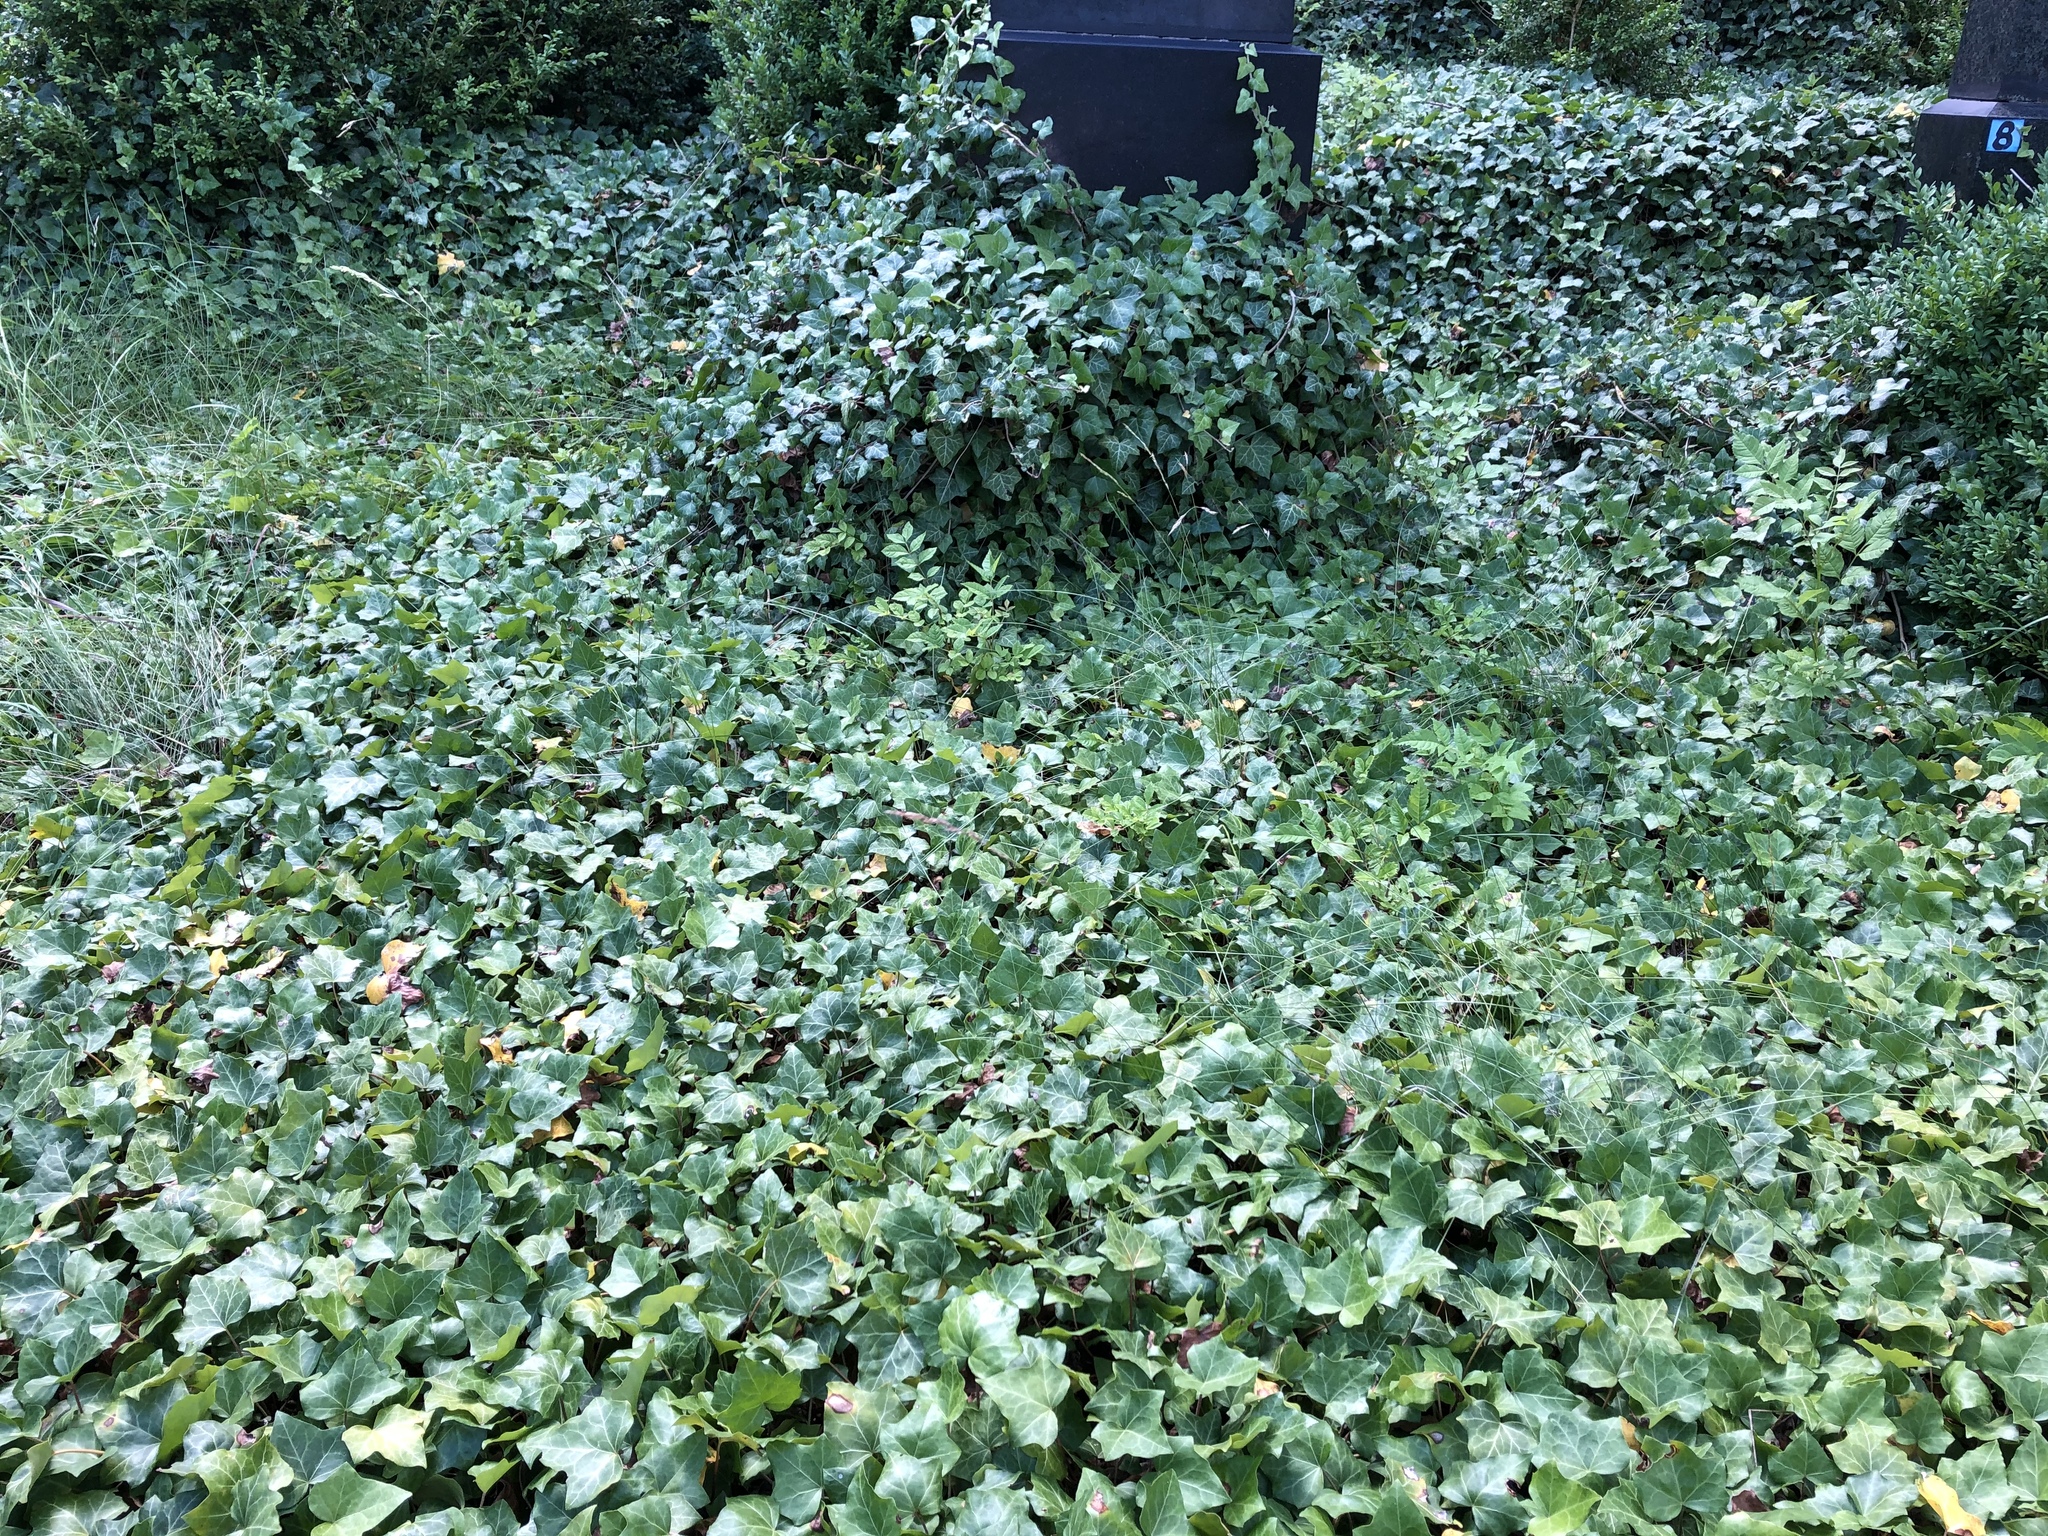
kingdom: Plantae
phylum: Tracheophyta
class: Magnoliopsida
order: Apiales
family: Araliaceae
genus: Hedera
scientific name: Hedera helix
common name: Ivy
